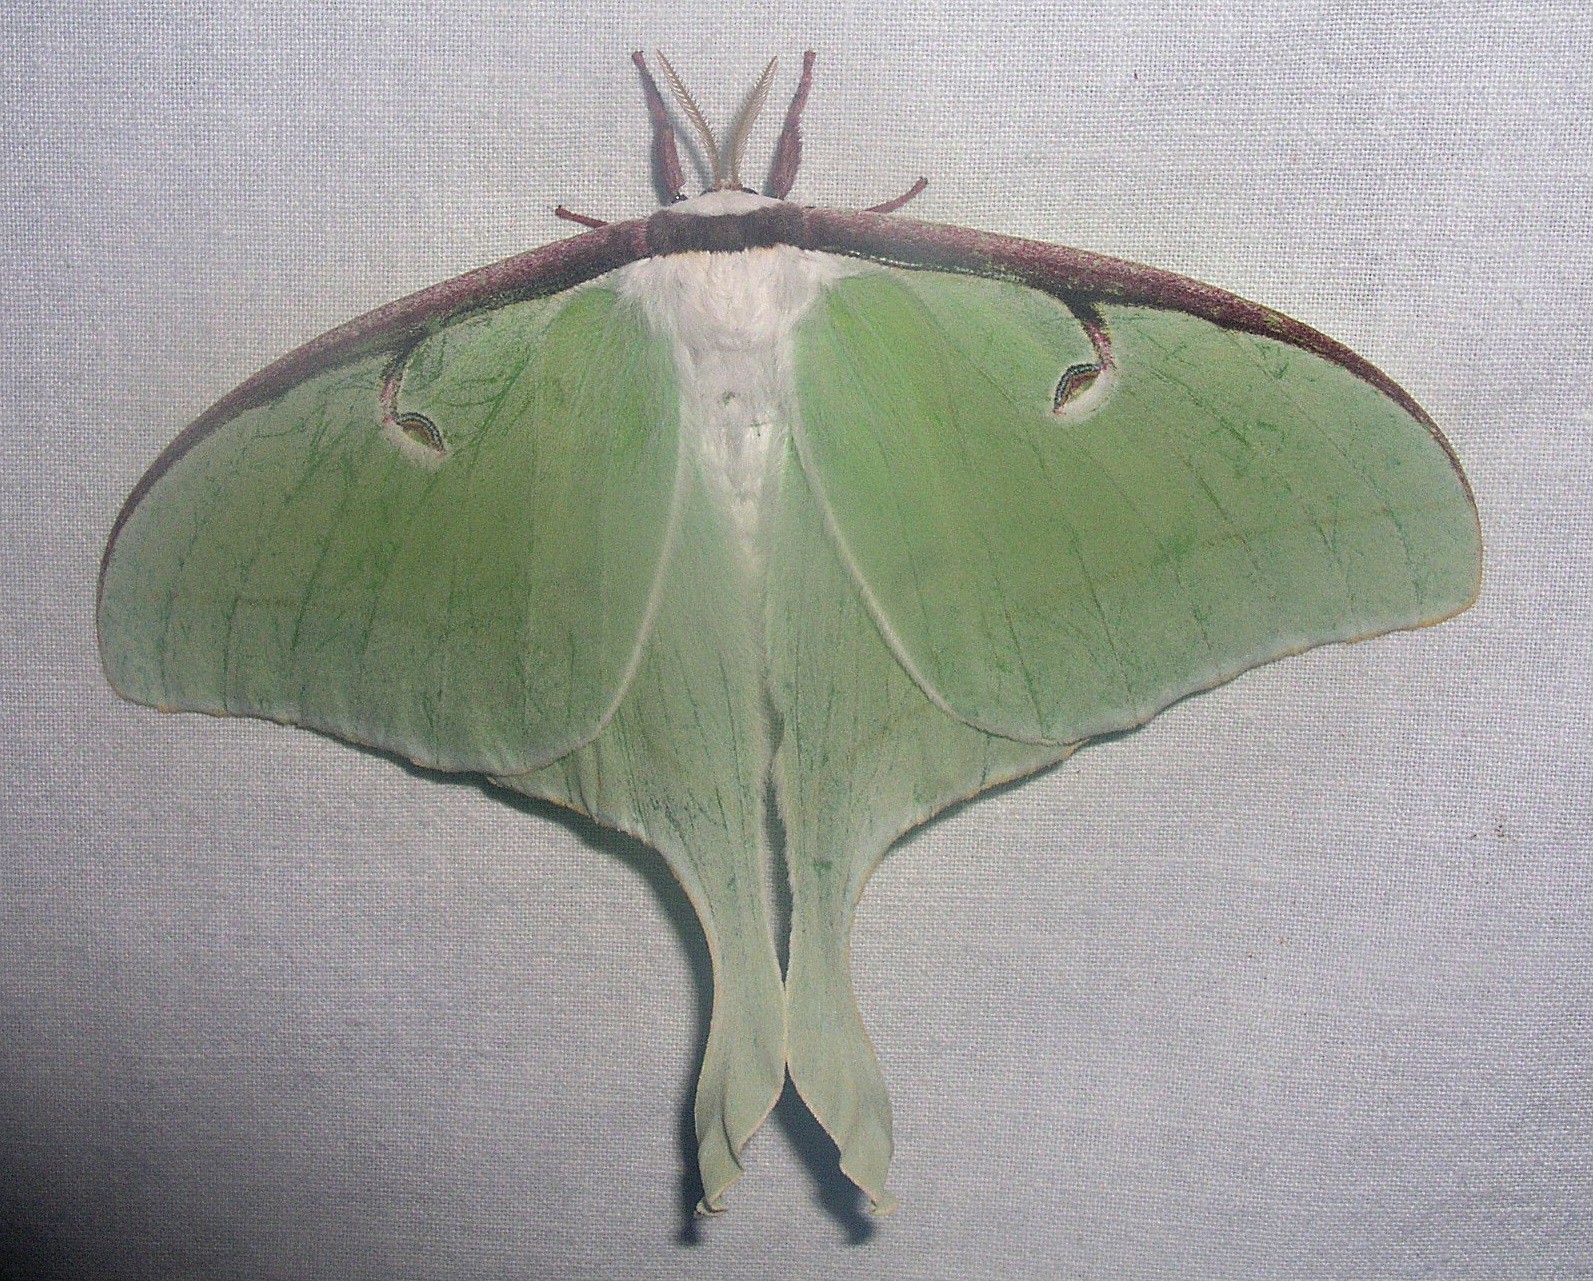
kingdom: Animalia
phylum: Arthropoda
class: Insecta
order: Lepidoptera
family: Saturniidae
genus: Actias
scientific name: Actias luna
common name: Luna moth
